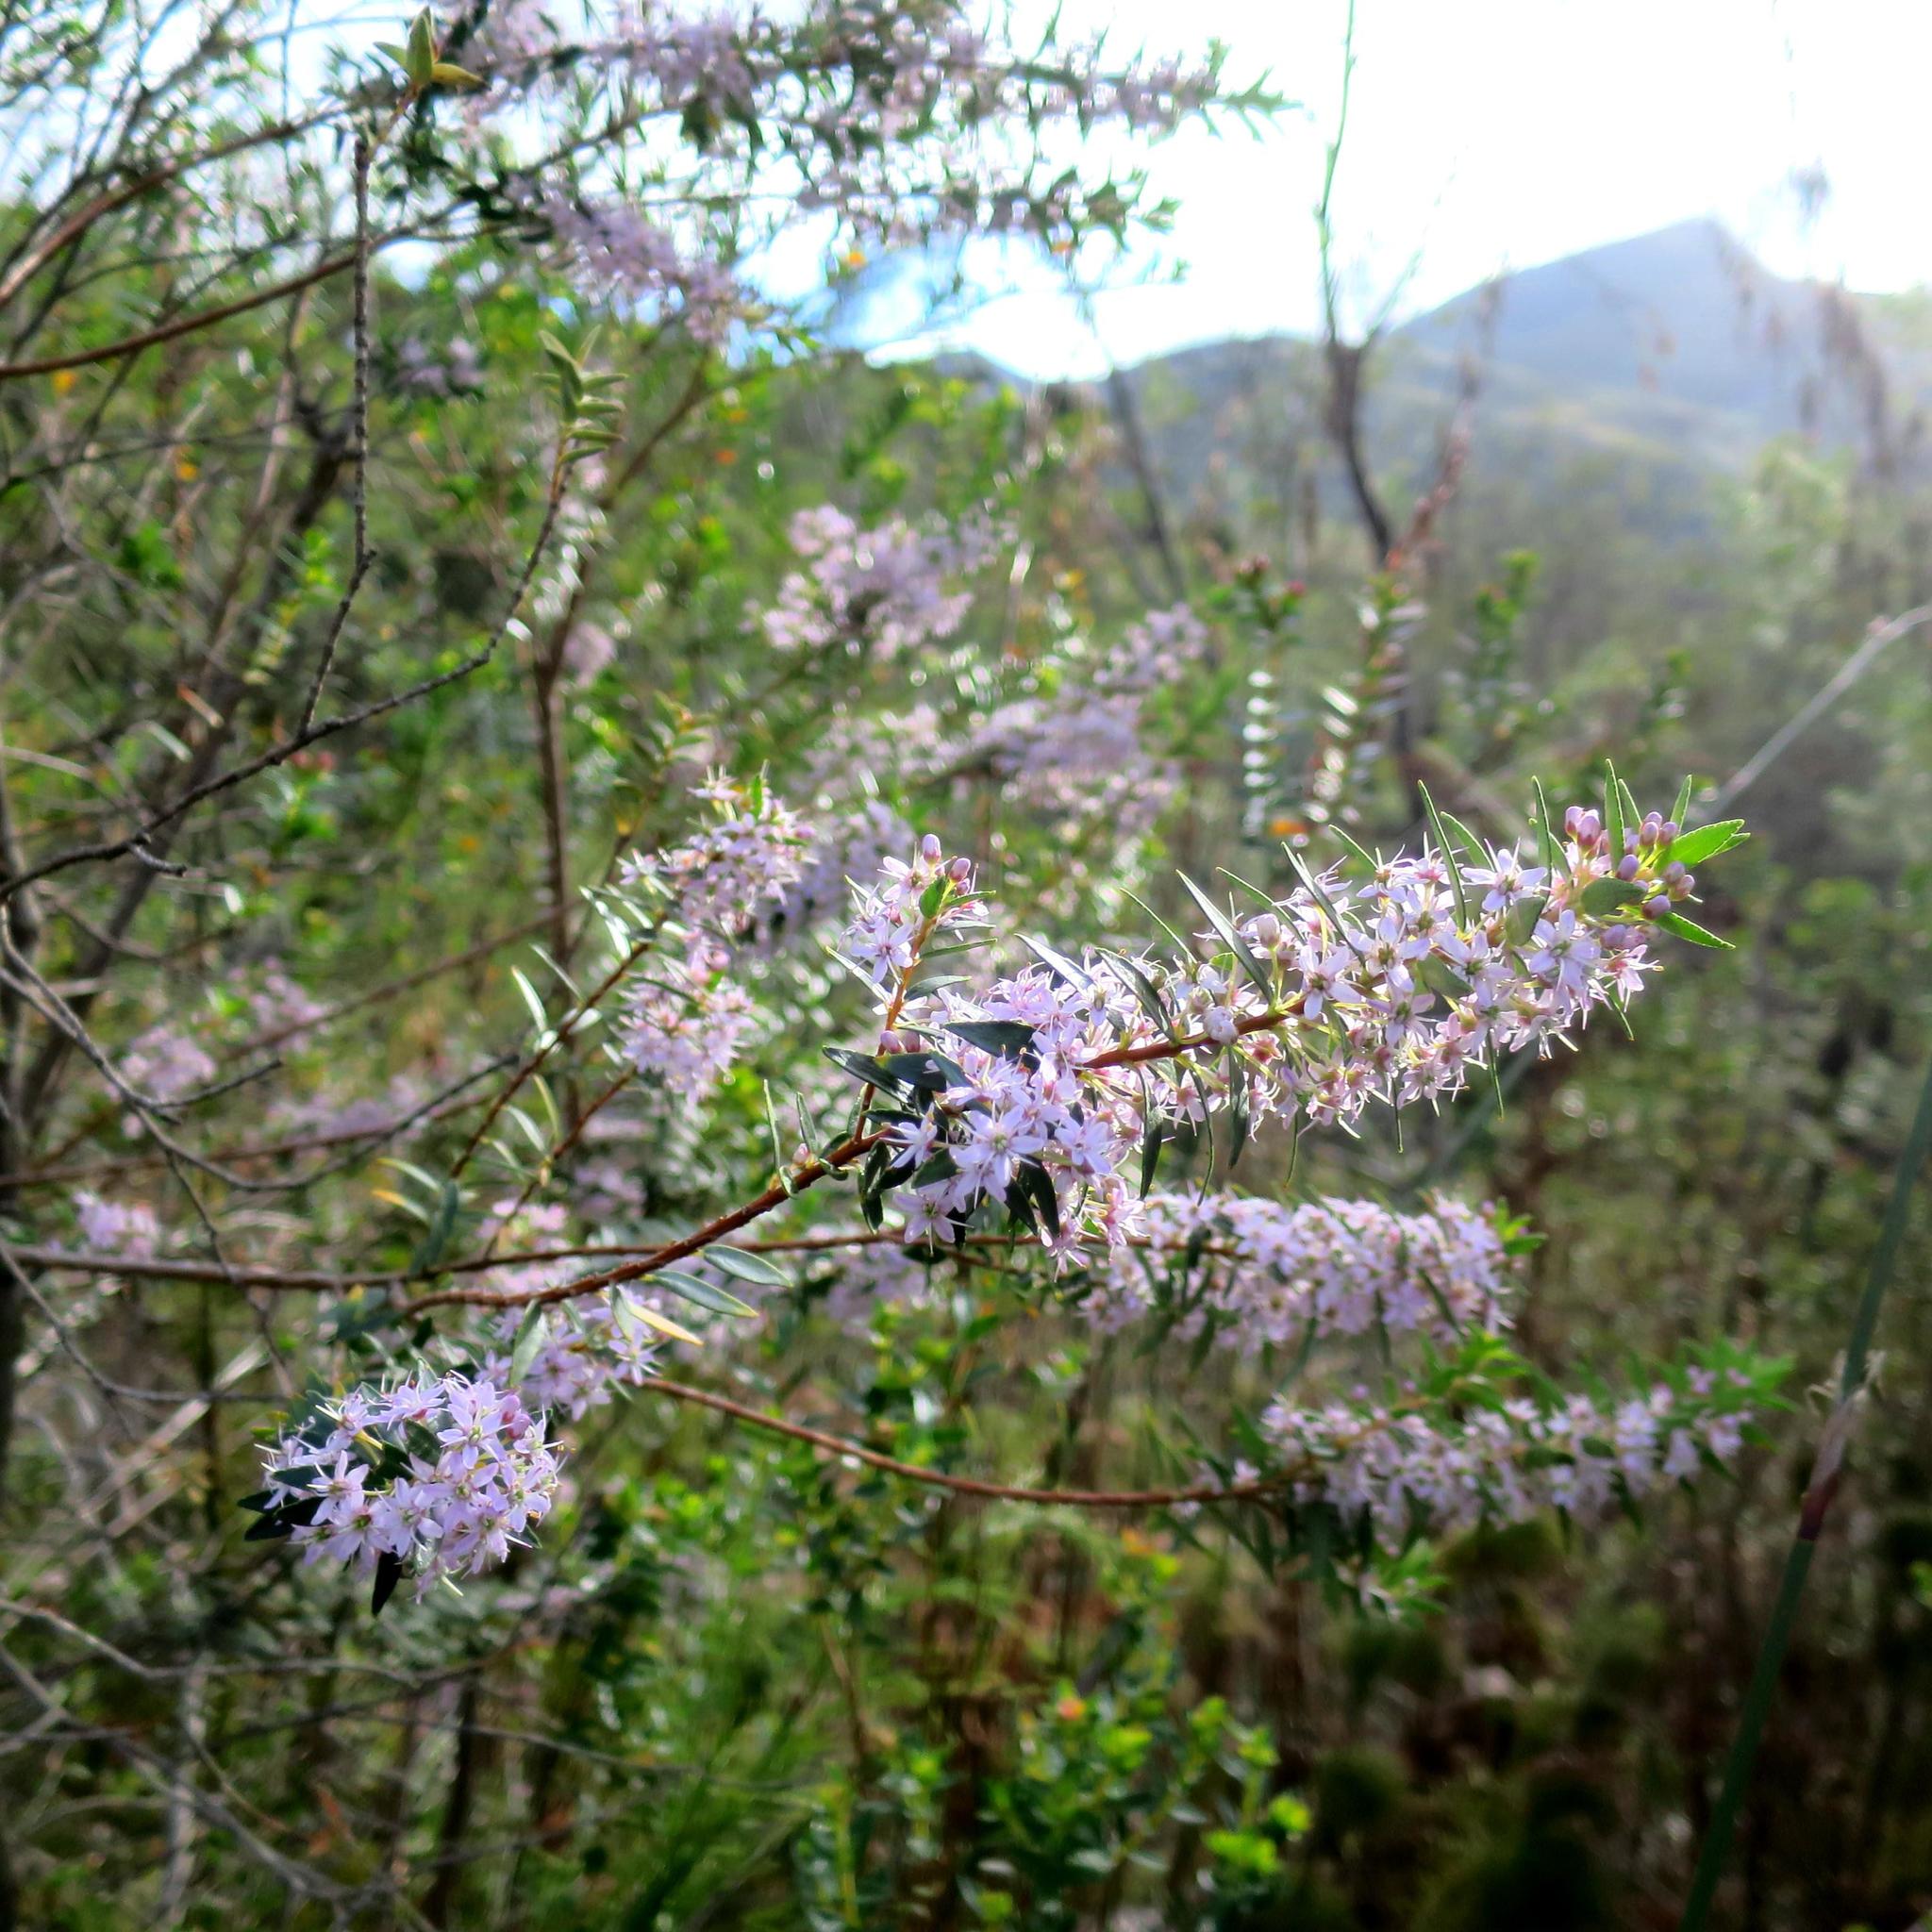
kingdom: Plantae
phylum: Tracheophyta
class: Magnoliopsida
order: Sapindales
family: Rutaceae
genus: Agathosma
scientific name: Agathosma ovata
